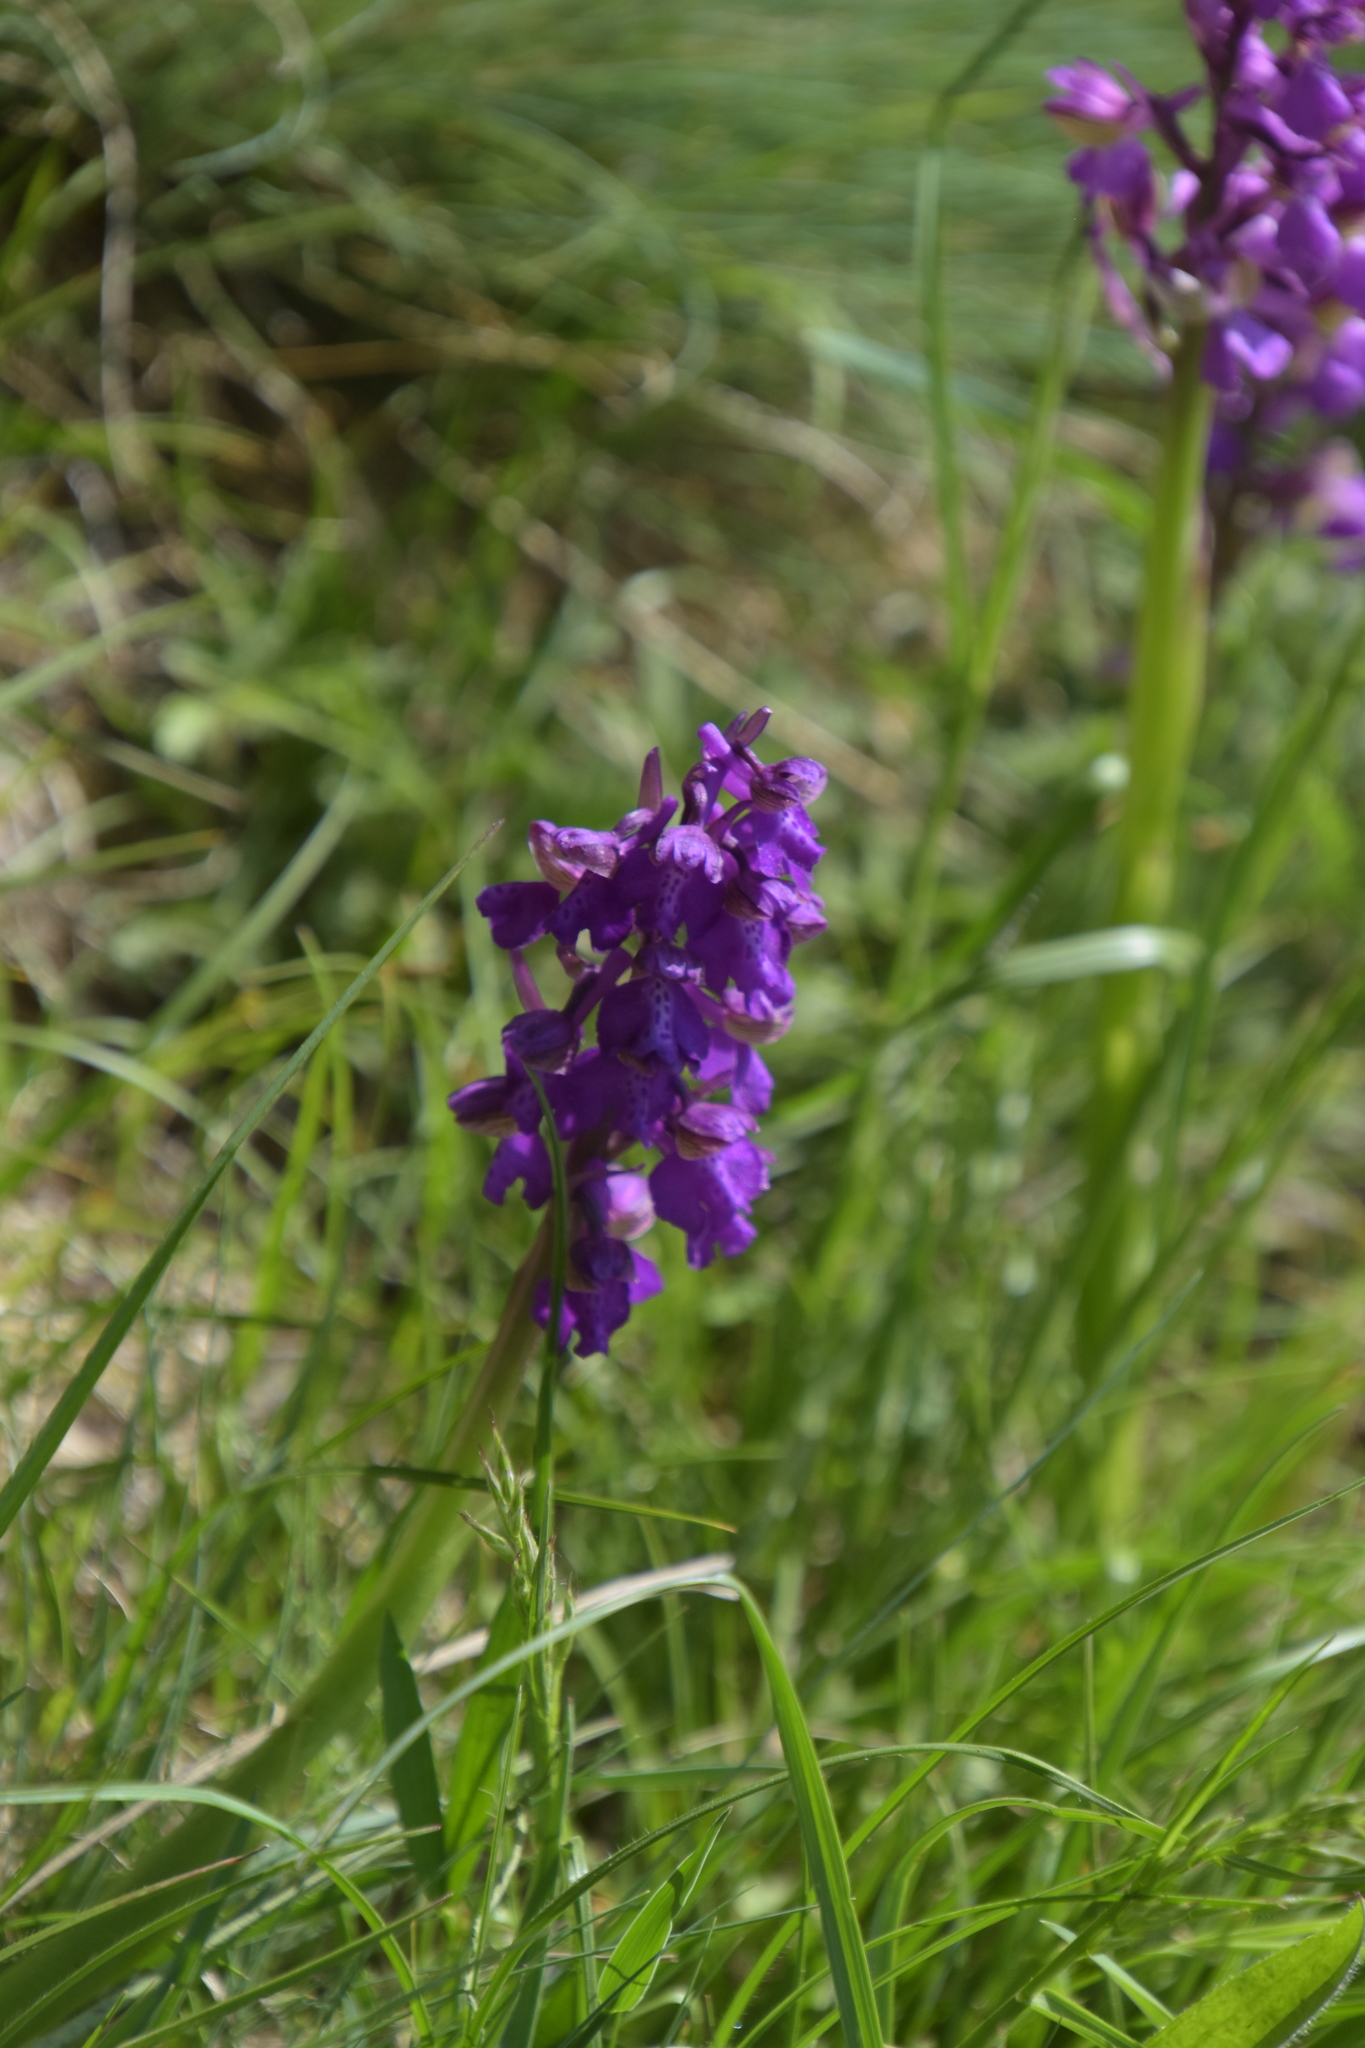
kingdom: Plantae
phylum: Tracheophyta
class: Liliopsida
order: Asparagales
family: Orchidaceae
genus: Anacamptis
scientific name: Anacamptis morio
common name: Green-winged orchid
